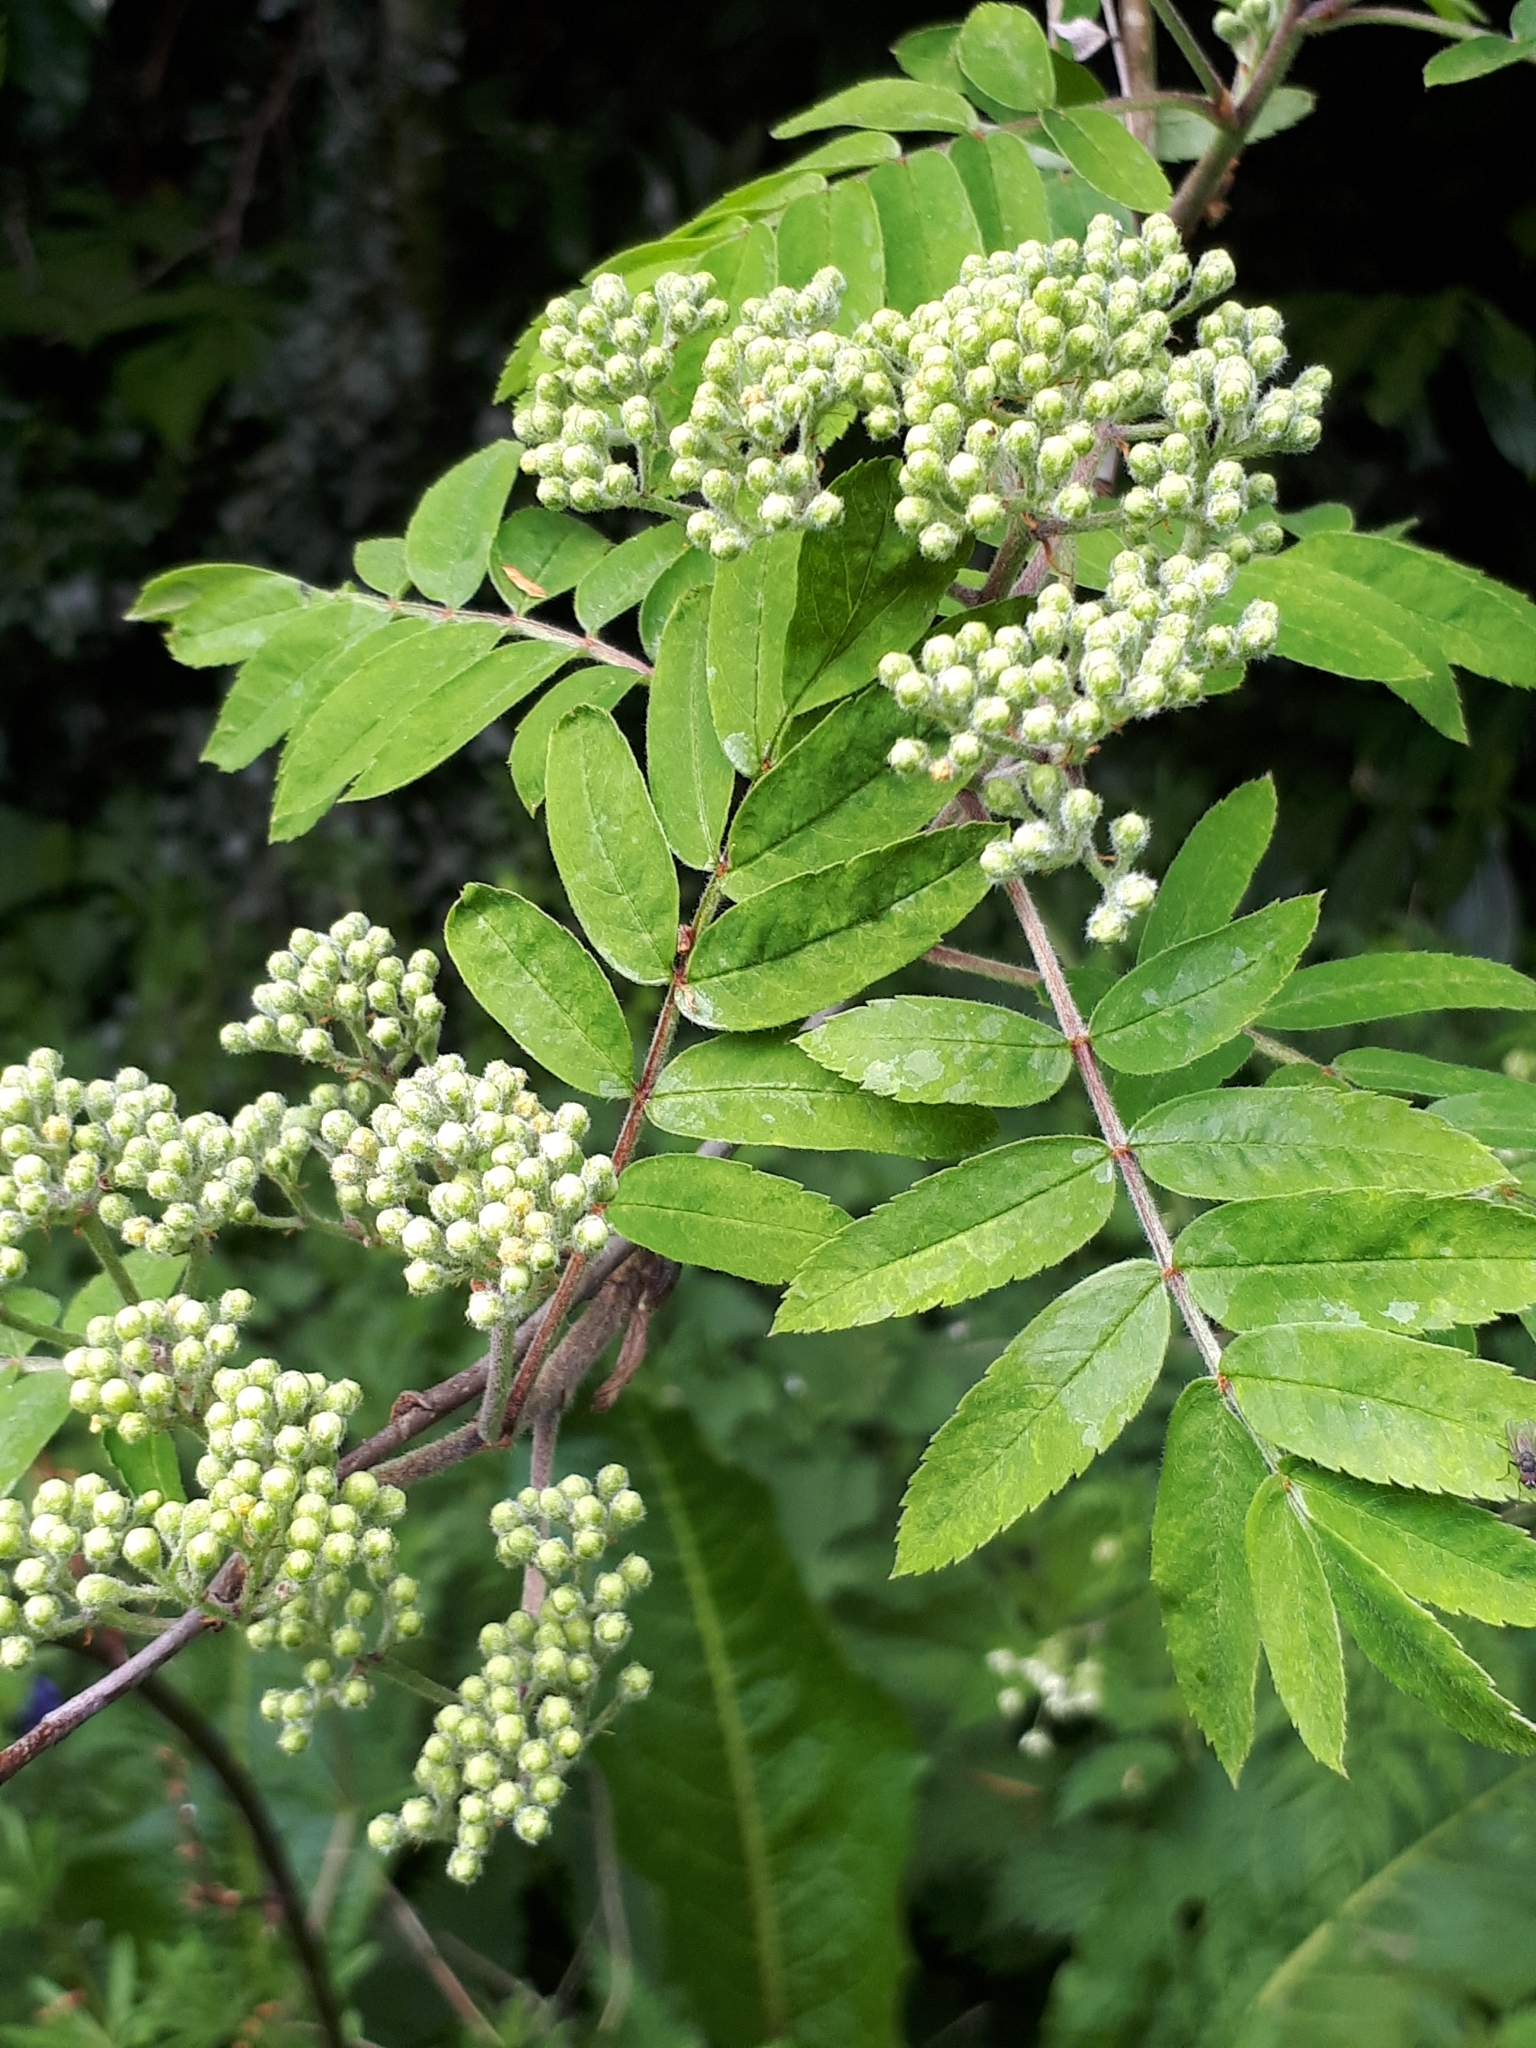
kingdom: Plantae
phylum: Tracheophyta
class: Magnoliopsida
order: Rosales
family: Rosaceae
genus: Sorbus
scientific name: Sorbus aucuparia
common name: Rowan
